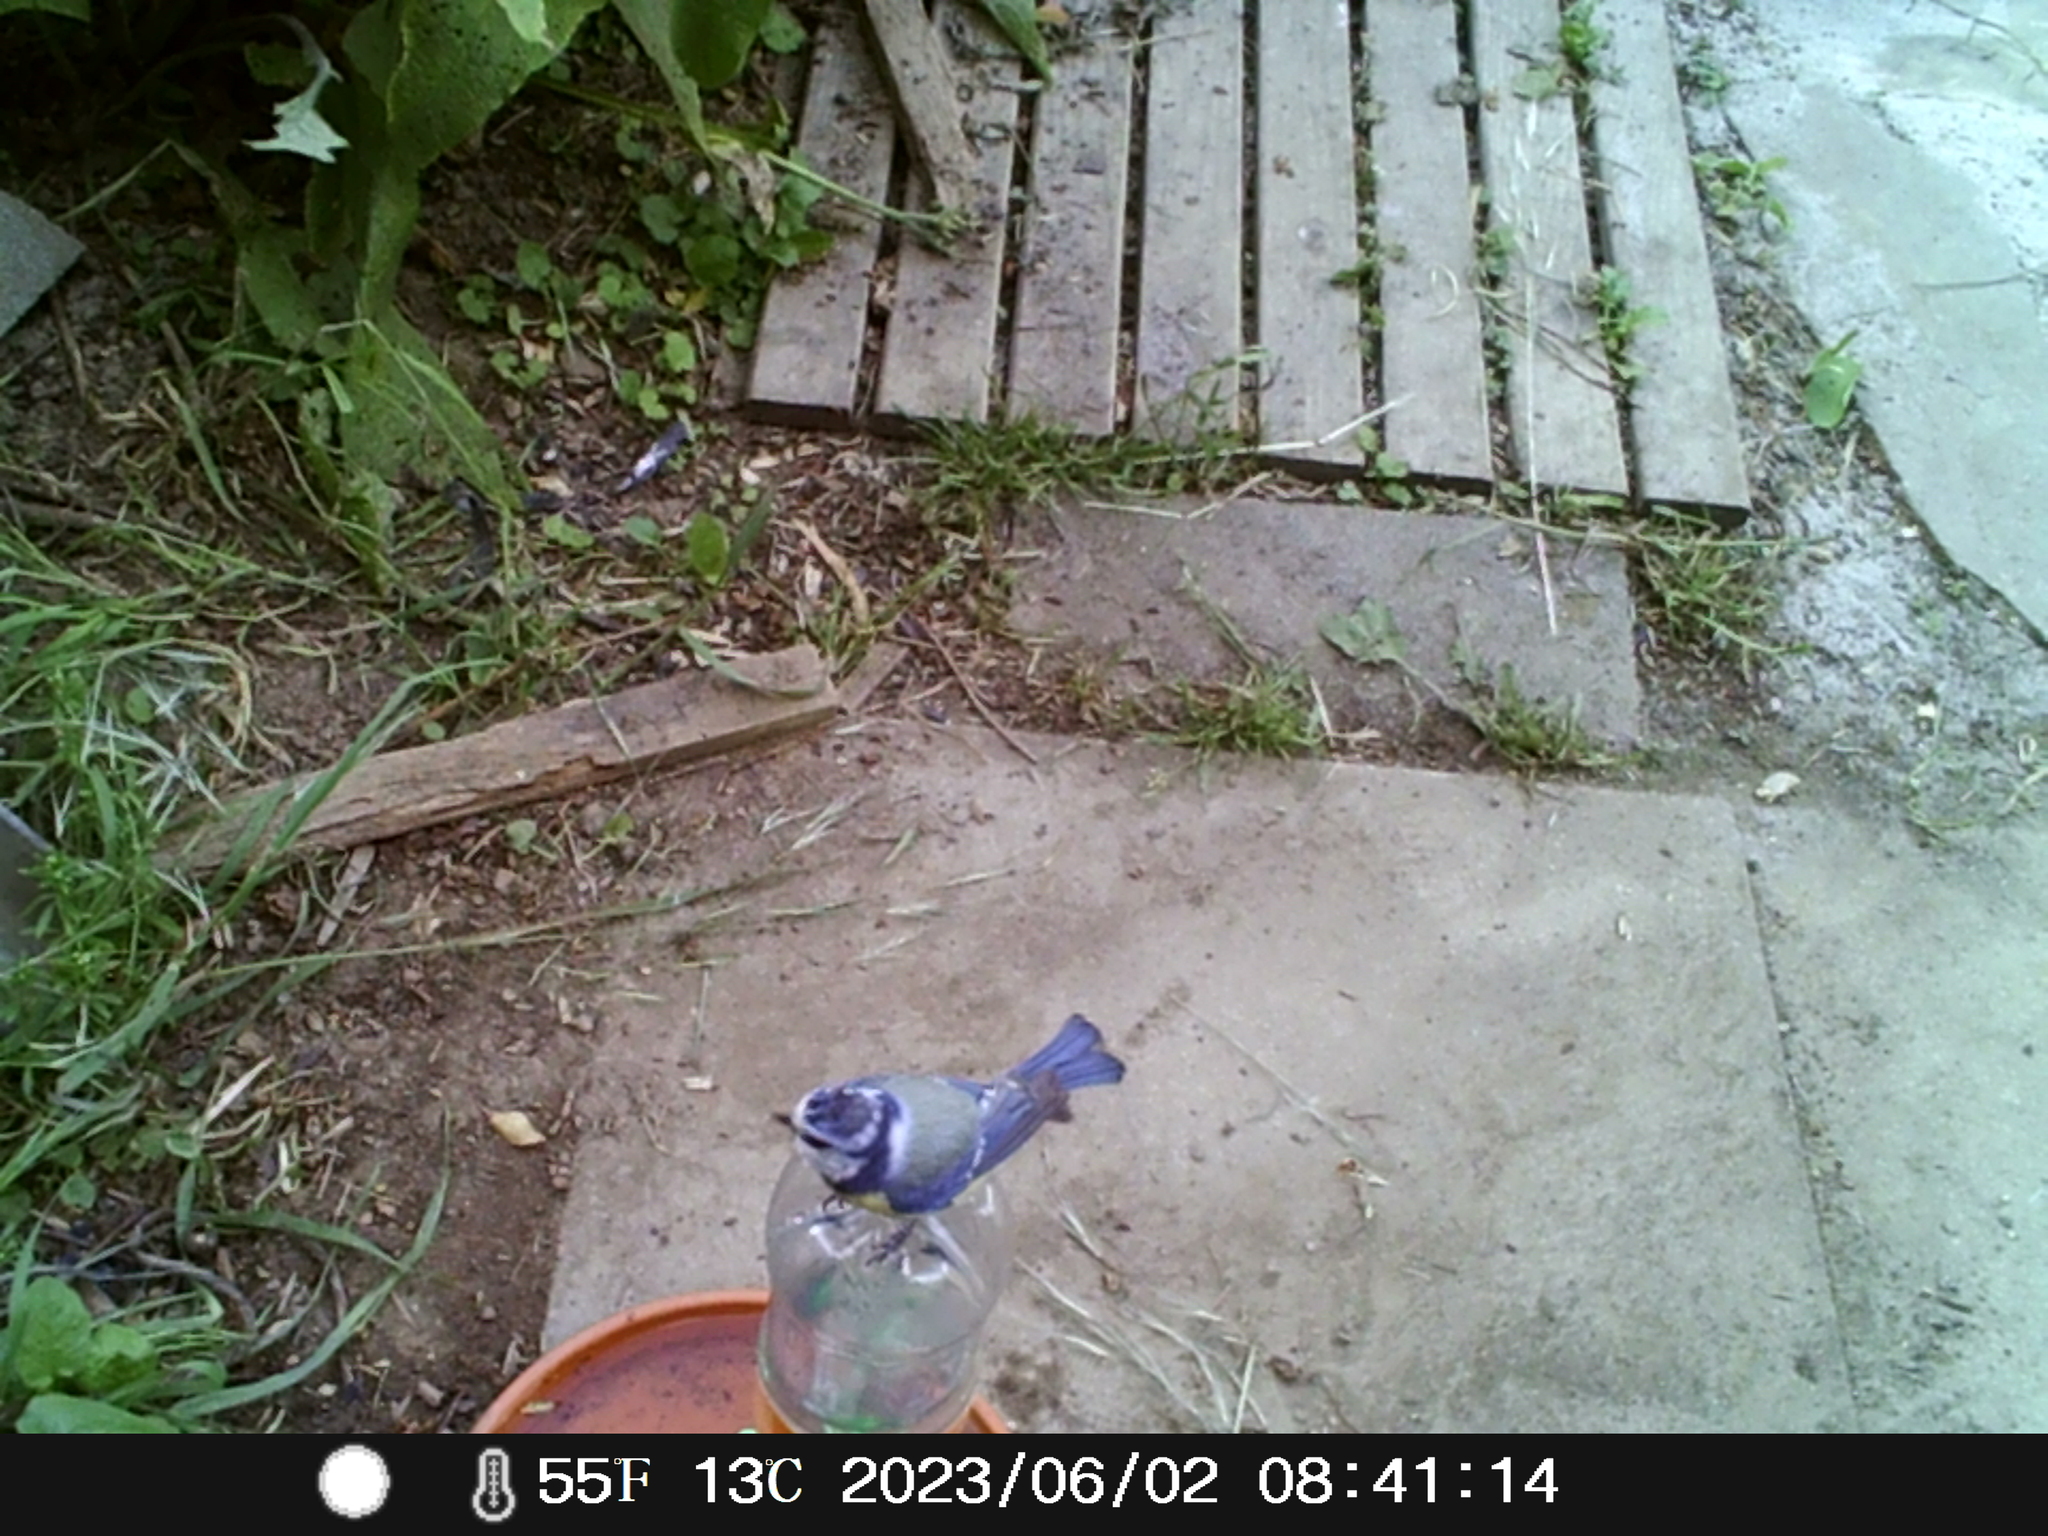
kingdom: Animalia
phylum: Chordata
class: Aves
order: Passeriformes
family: Paridae
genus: Cyanistes
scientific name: Cyanistes caeruleus
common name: Eurasian blue tit
